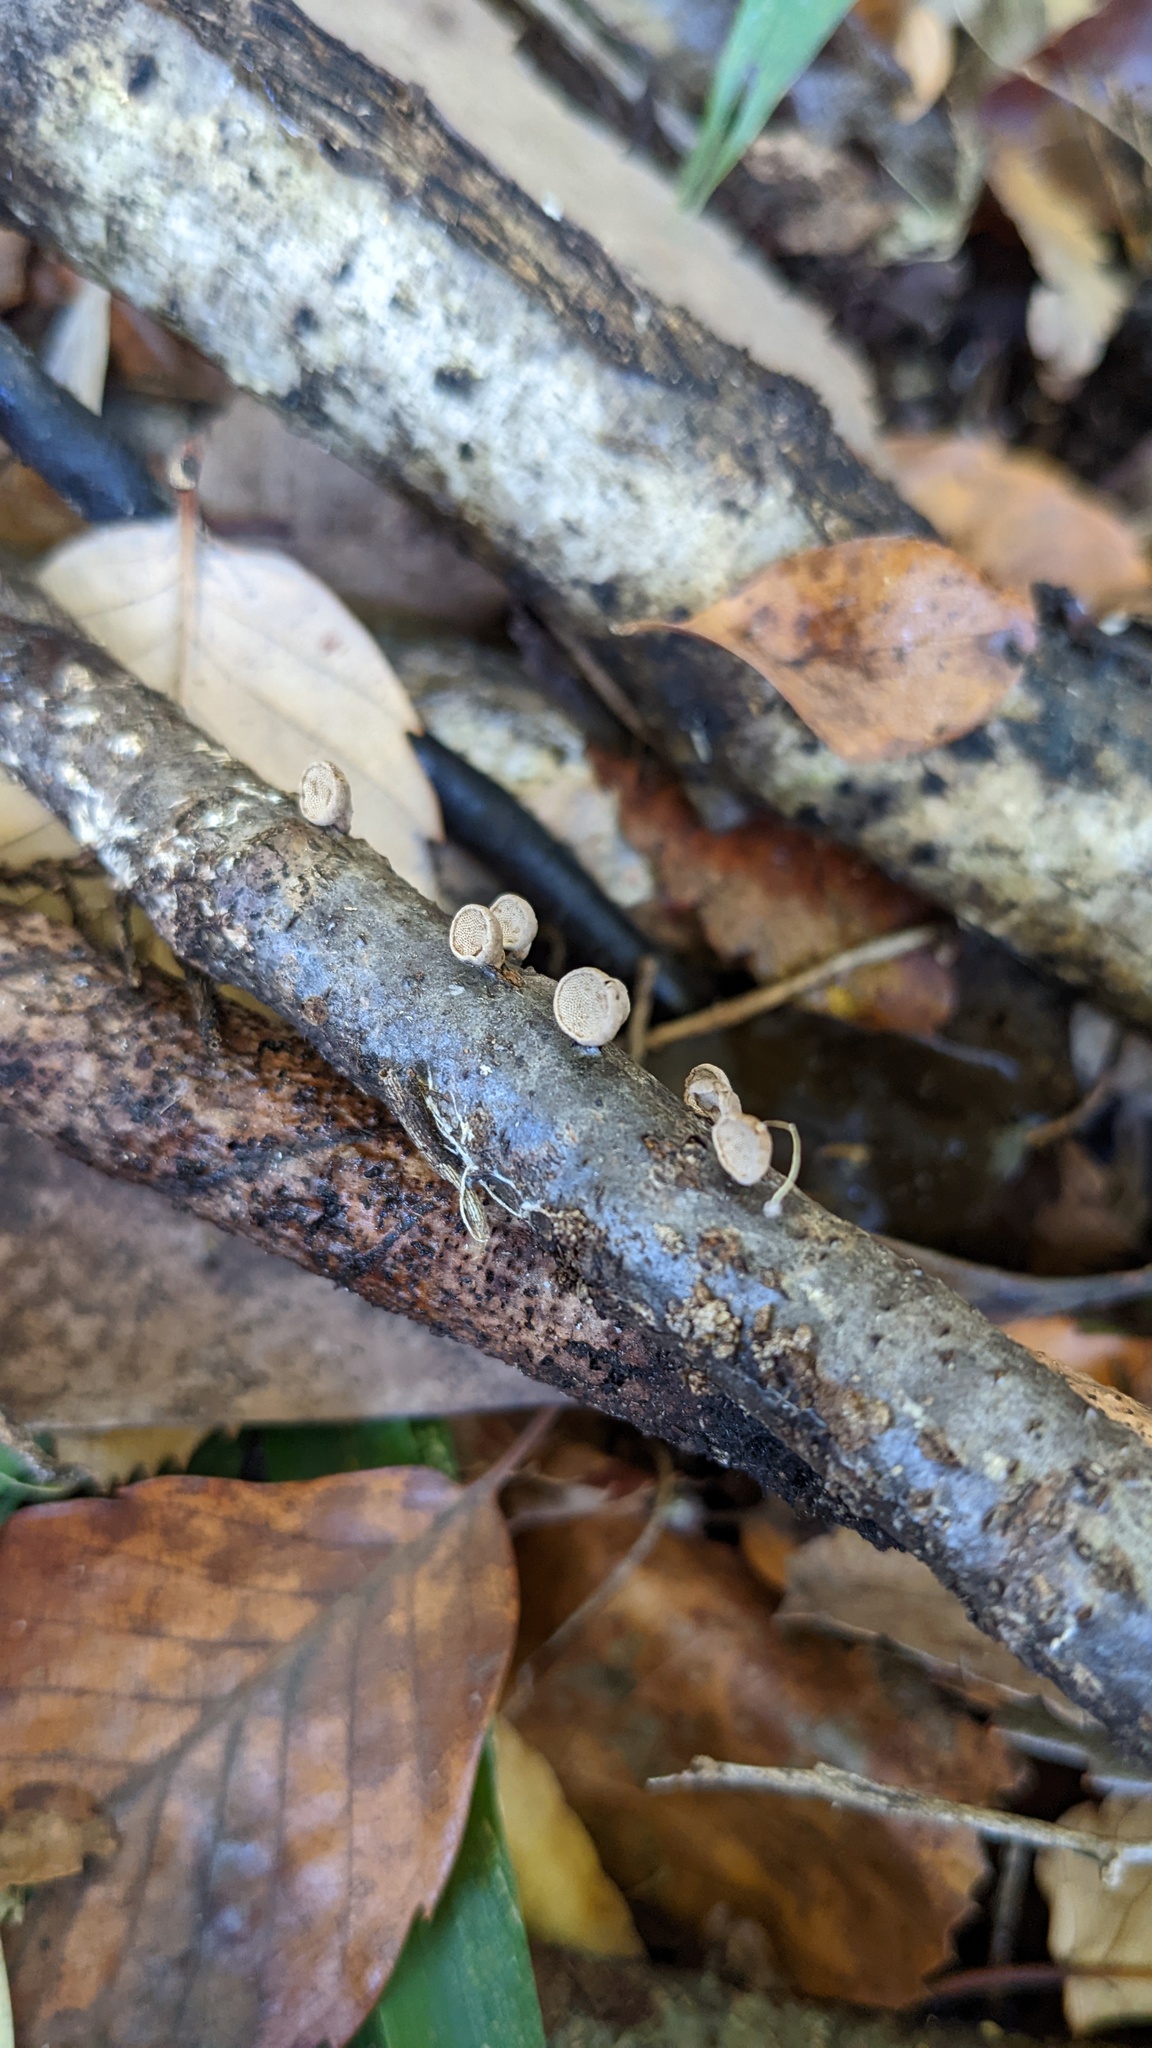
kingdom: Fungi
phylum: Basidiomycota
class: Agaricomycetes
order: Agaricales
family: Schizophyllaceae
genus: Porodisculus
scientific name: Porodisculus pendulus
